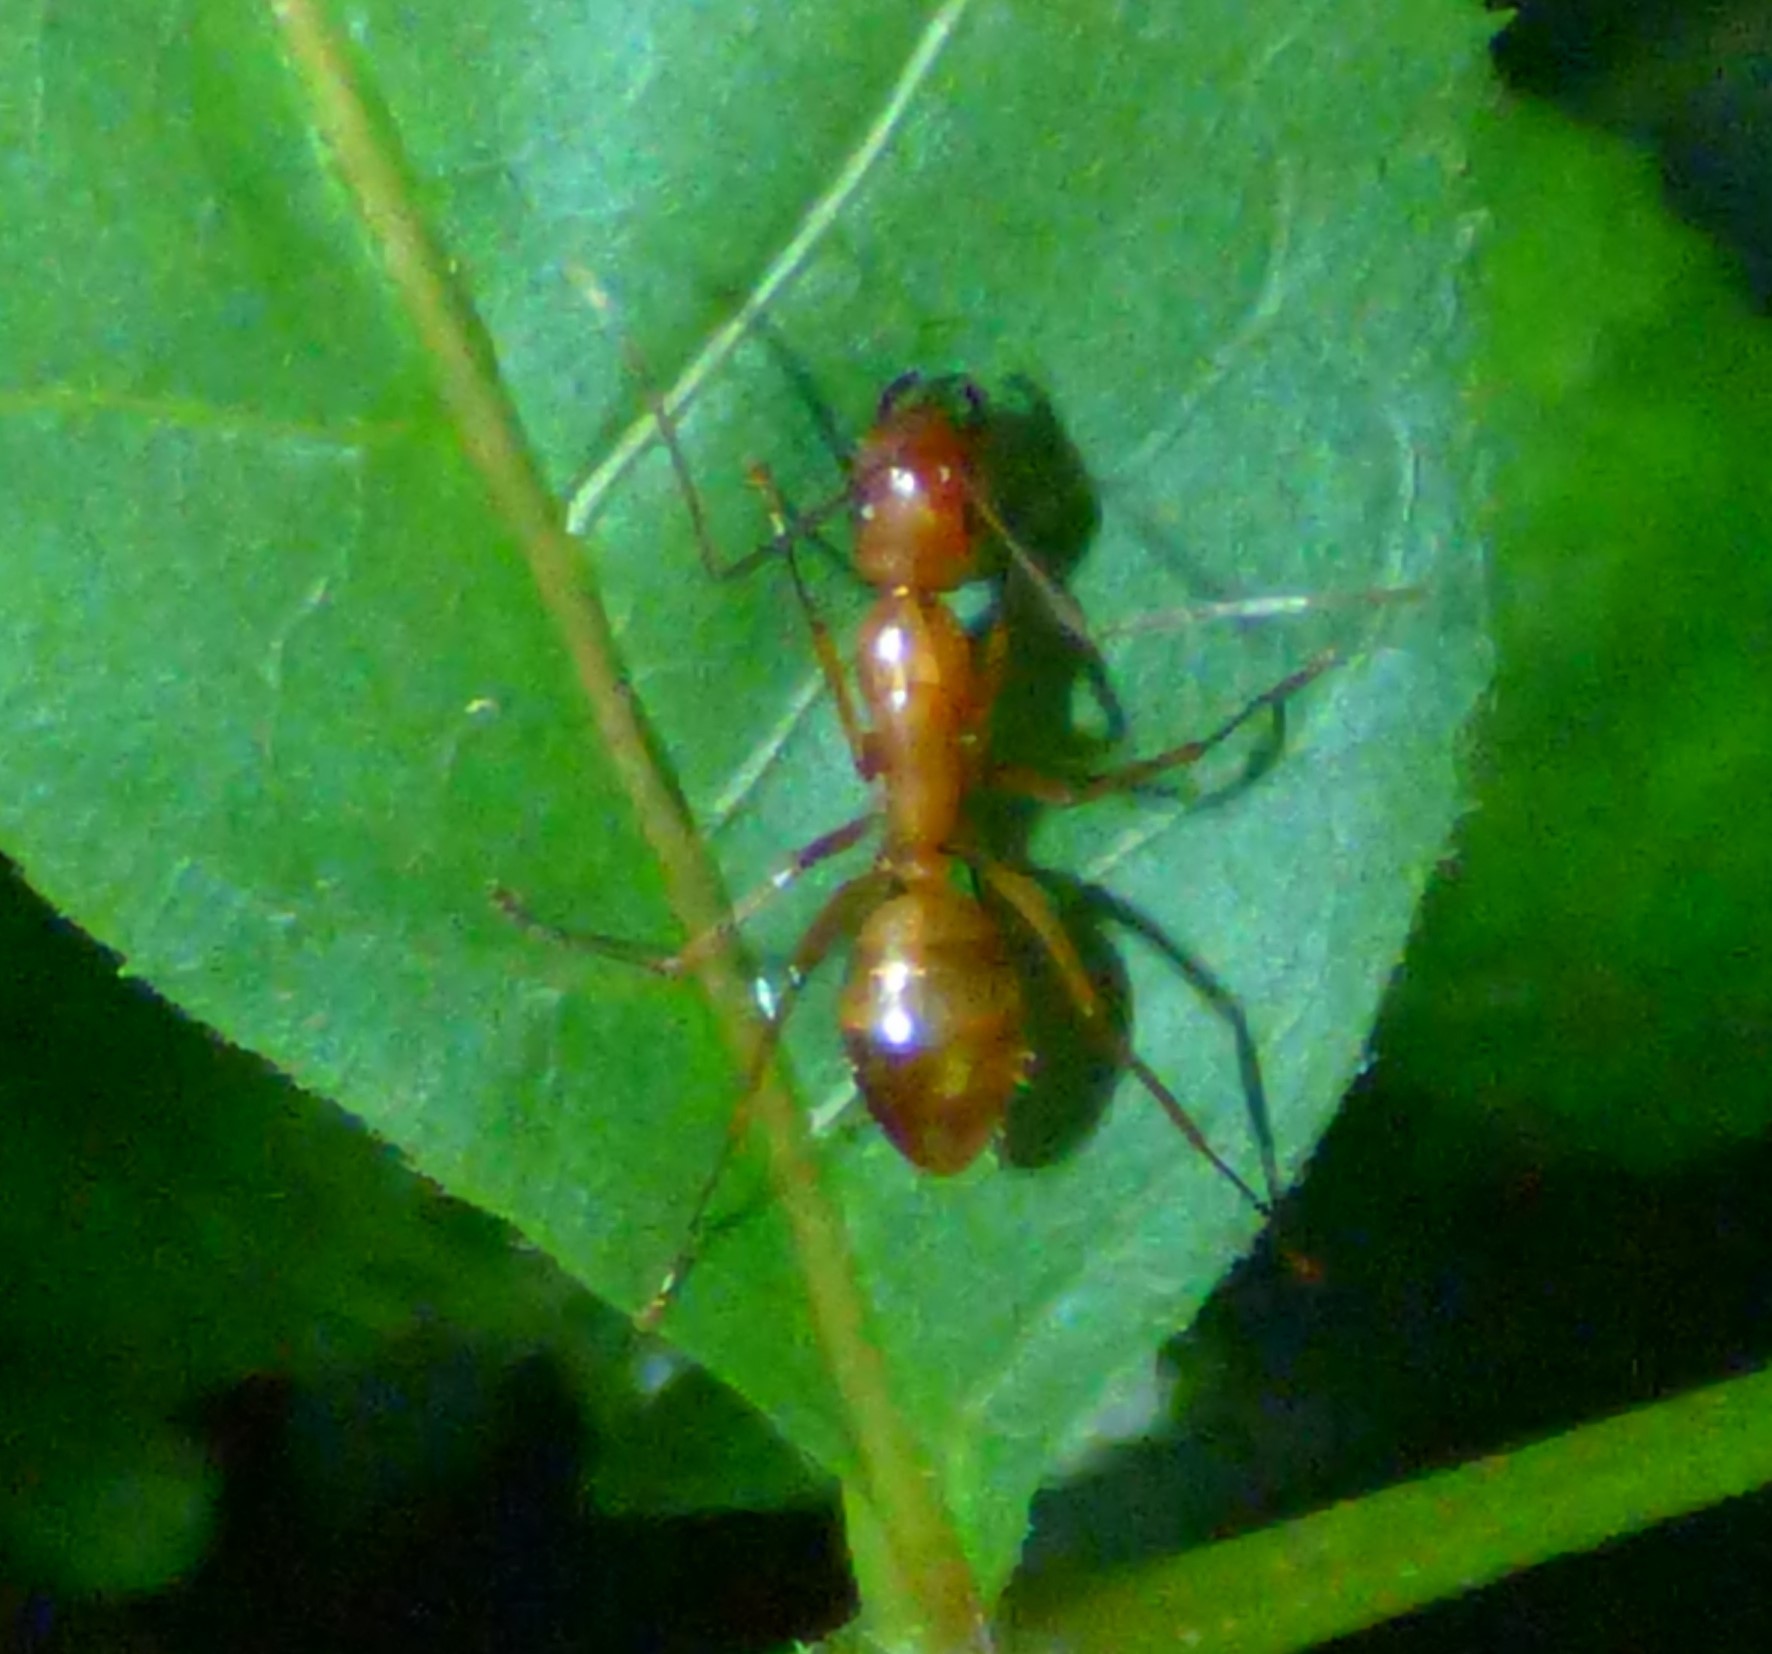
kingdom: Animalia
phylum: Arthropoda
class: Insecta
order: Hymenoptera
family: Formicidae
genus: Camponotus
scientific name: Camponotus castaneus
